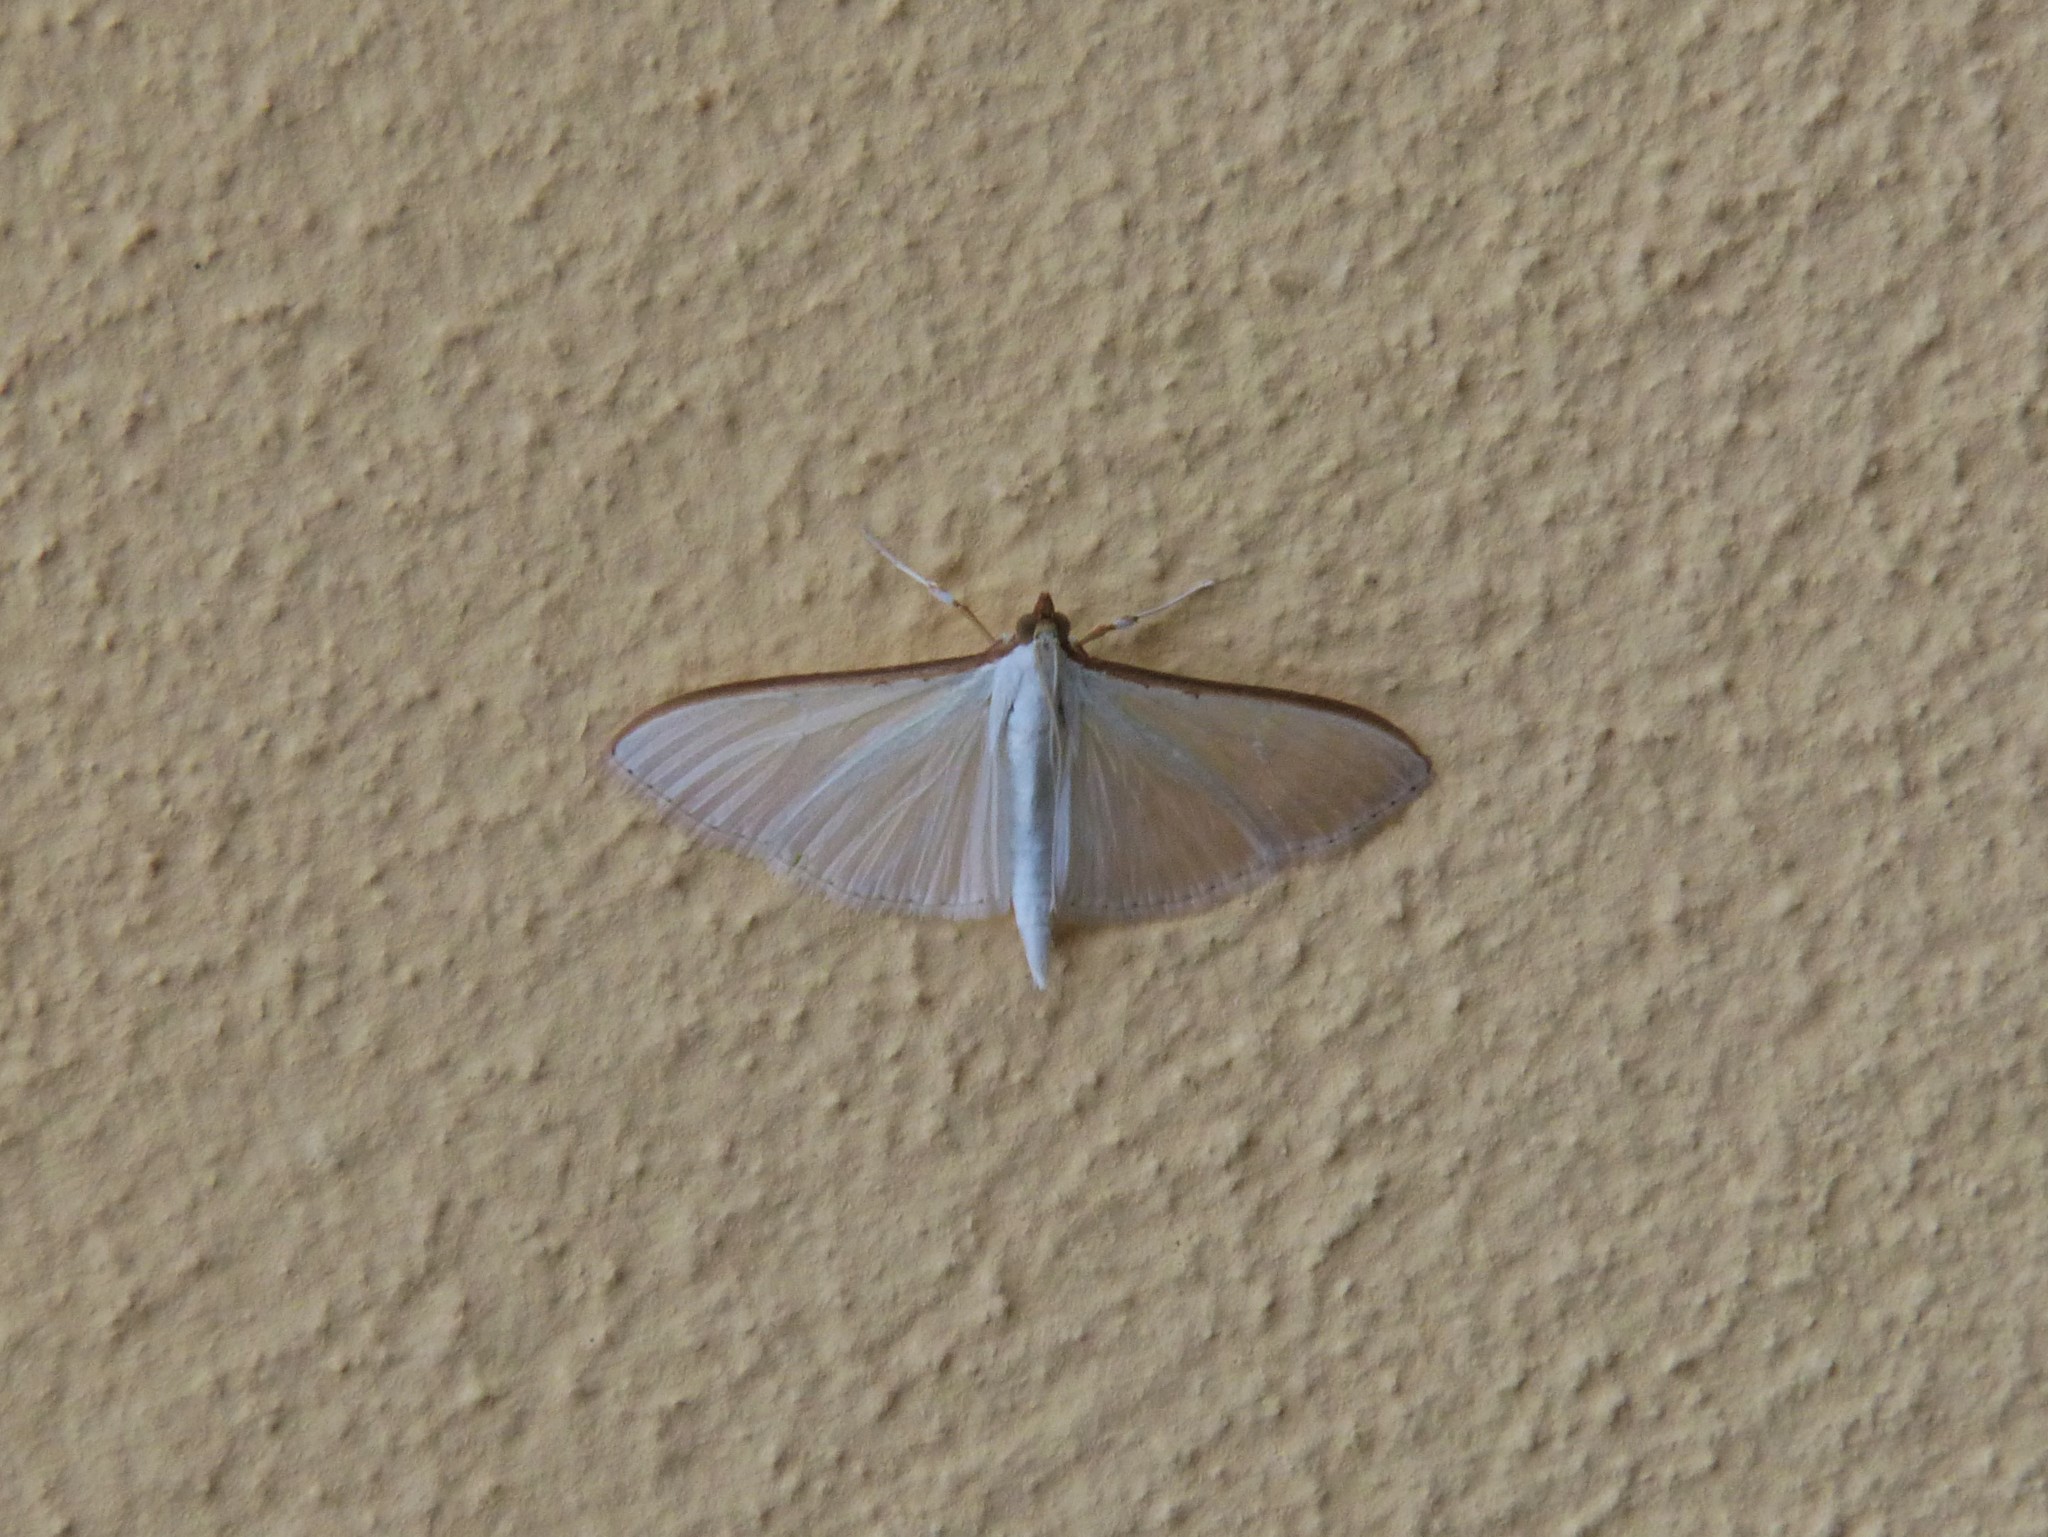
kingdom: Animalia
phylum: Arthropoda
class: Insecta
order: Lepidoptera
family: Crambidae
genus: Palpita
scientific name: Palpita vitrealis
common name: Olive-tree pearl
